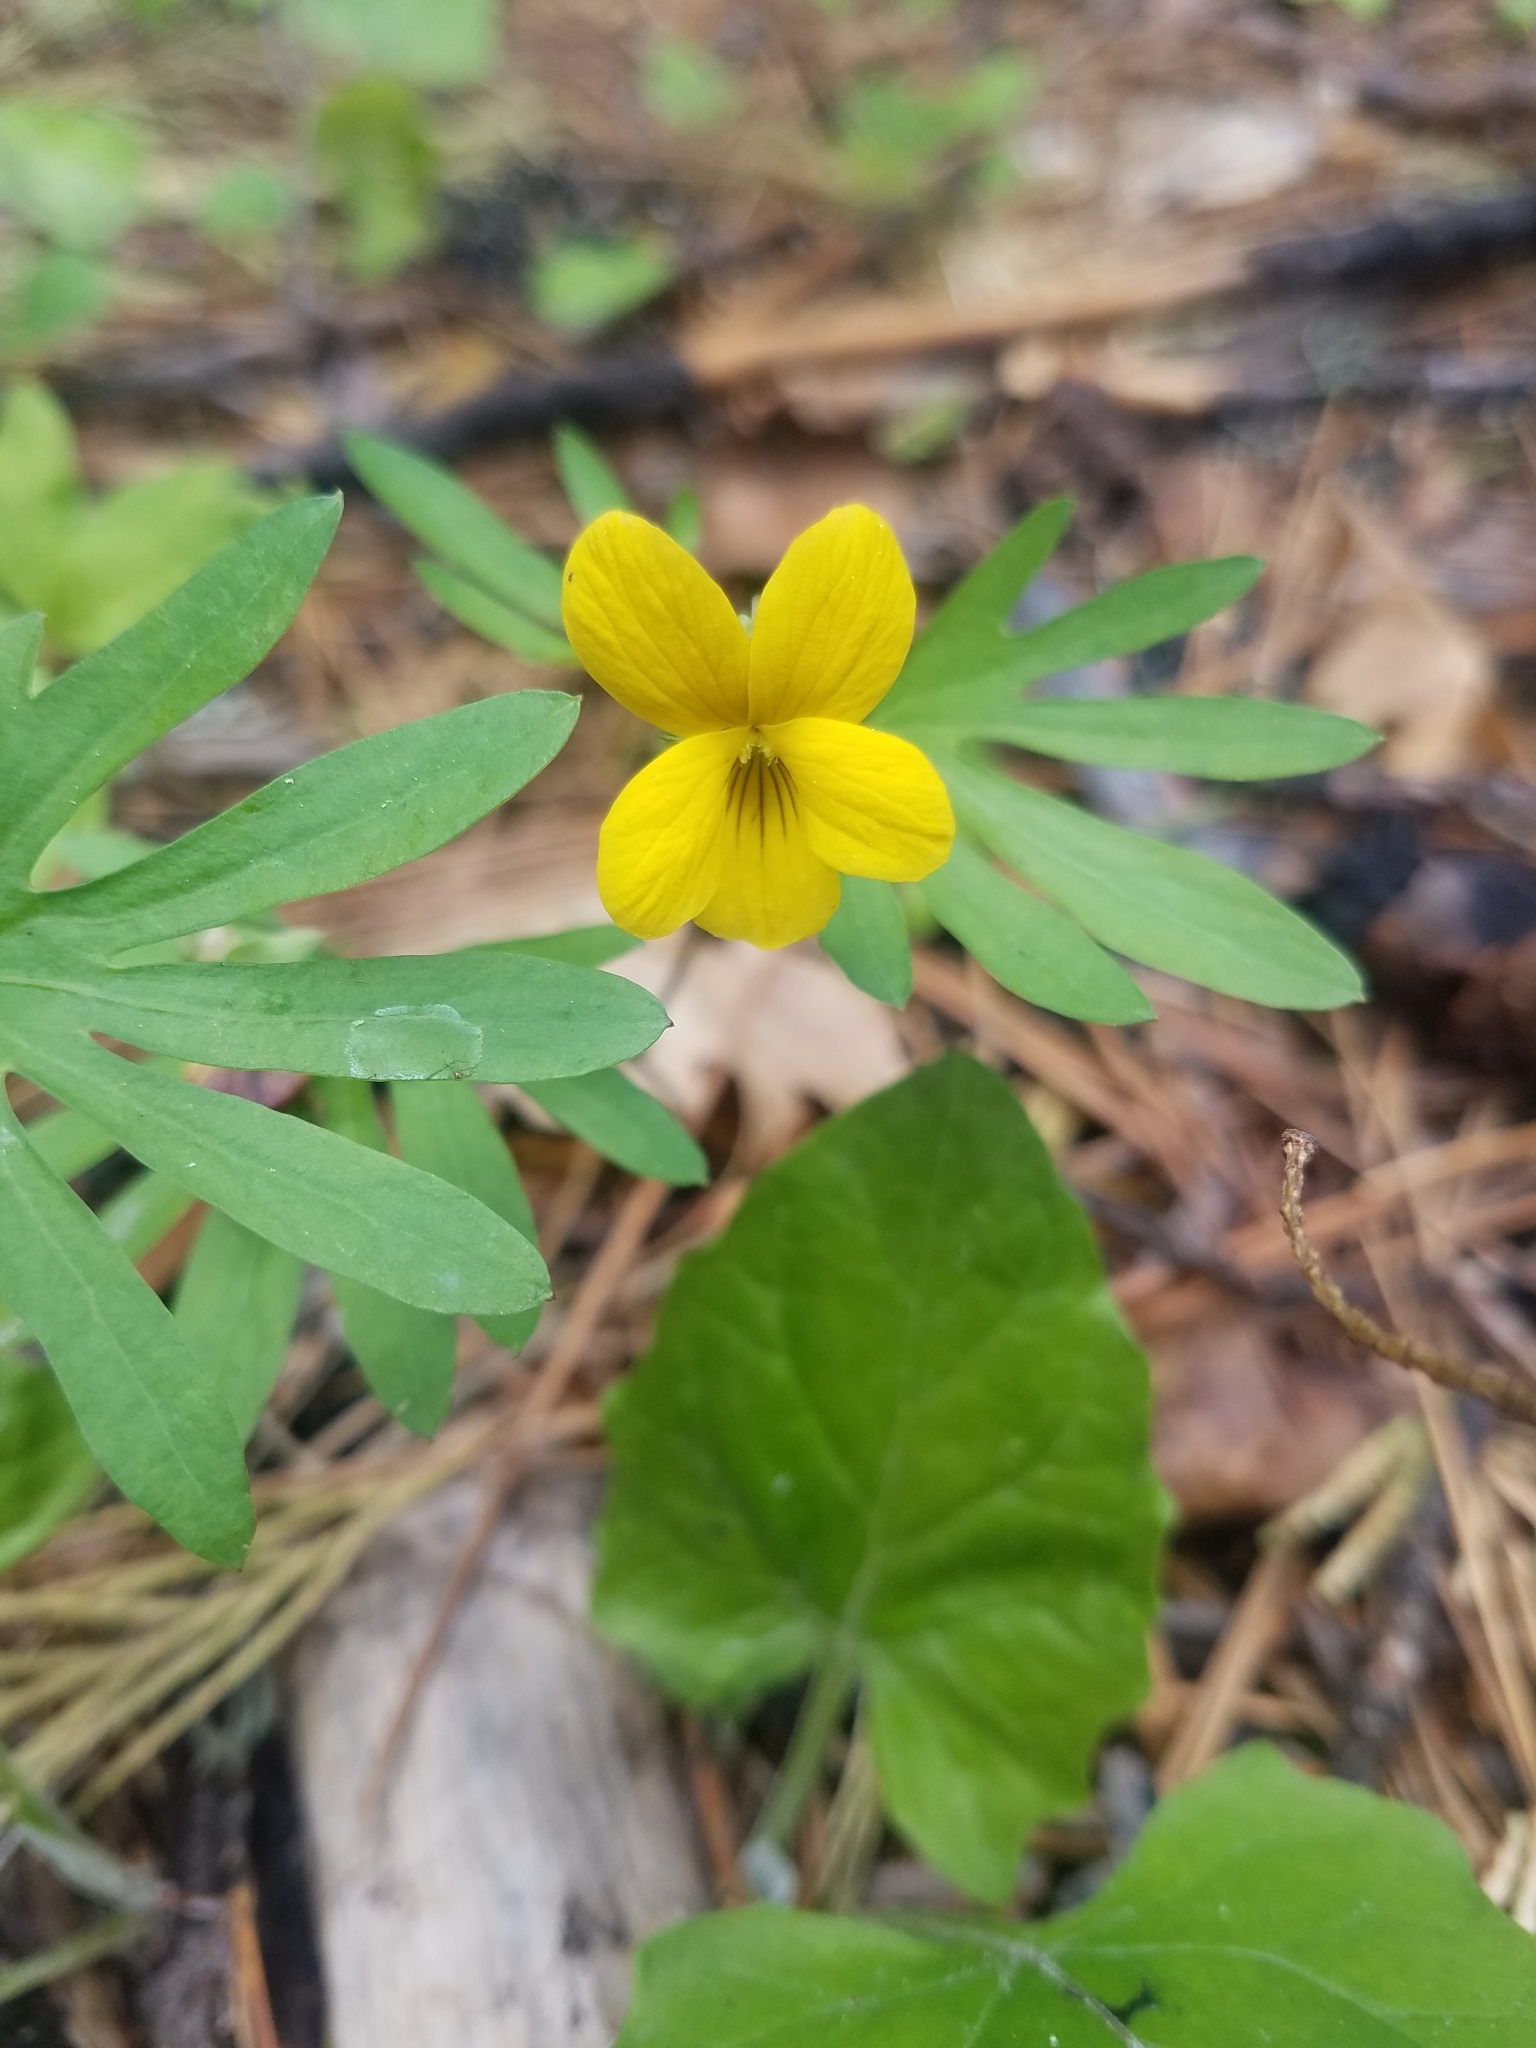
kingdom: Plantae
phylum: Tracheophyta
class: Magnoliopsida
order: Malpighiales
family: Violaceae
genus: Viola
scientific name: Viola lobata
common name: Pine violet
